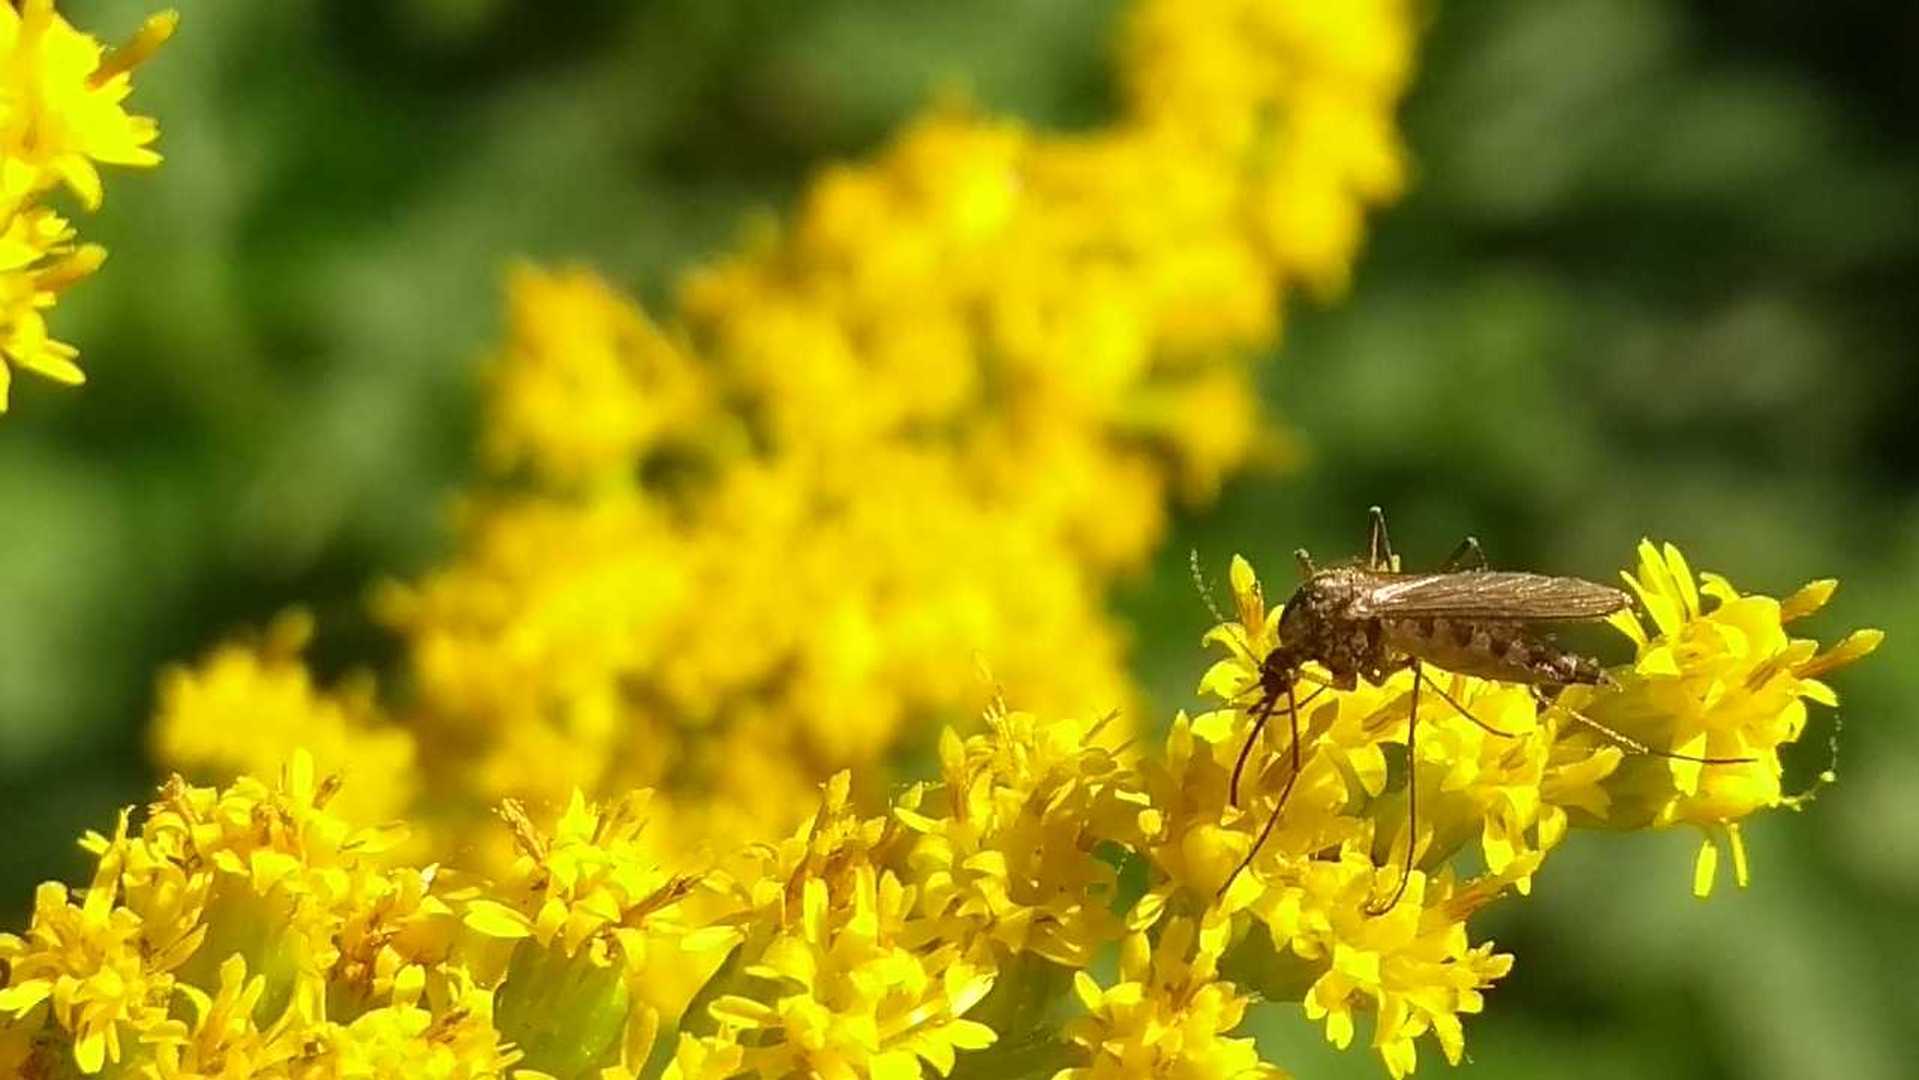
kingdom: Animalia
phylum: Arthropoda
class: Insecta
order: Diptera
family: Culicidae
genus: Aedes
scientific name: Aedes
